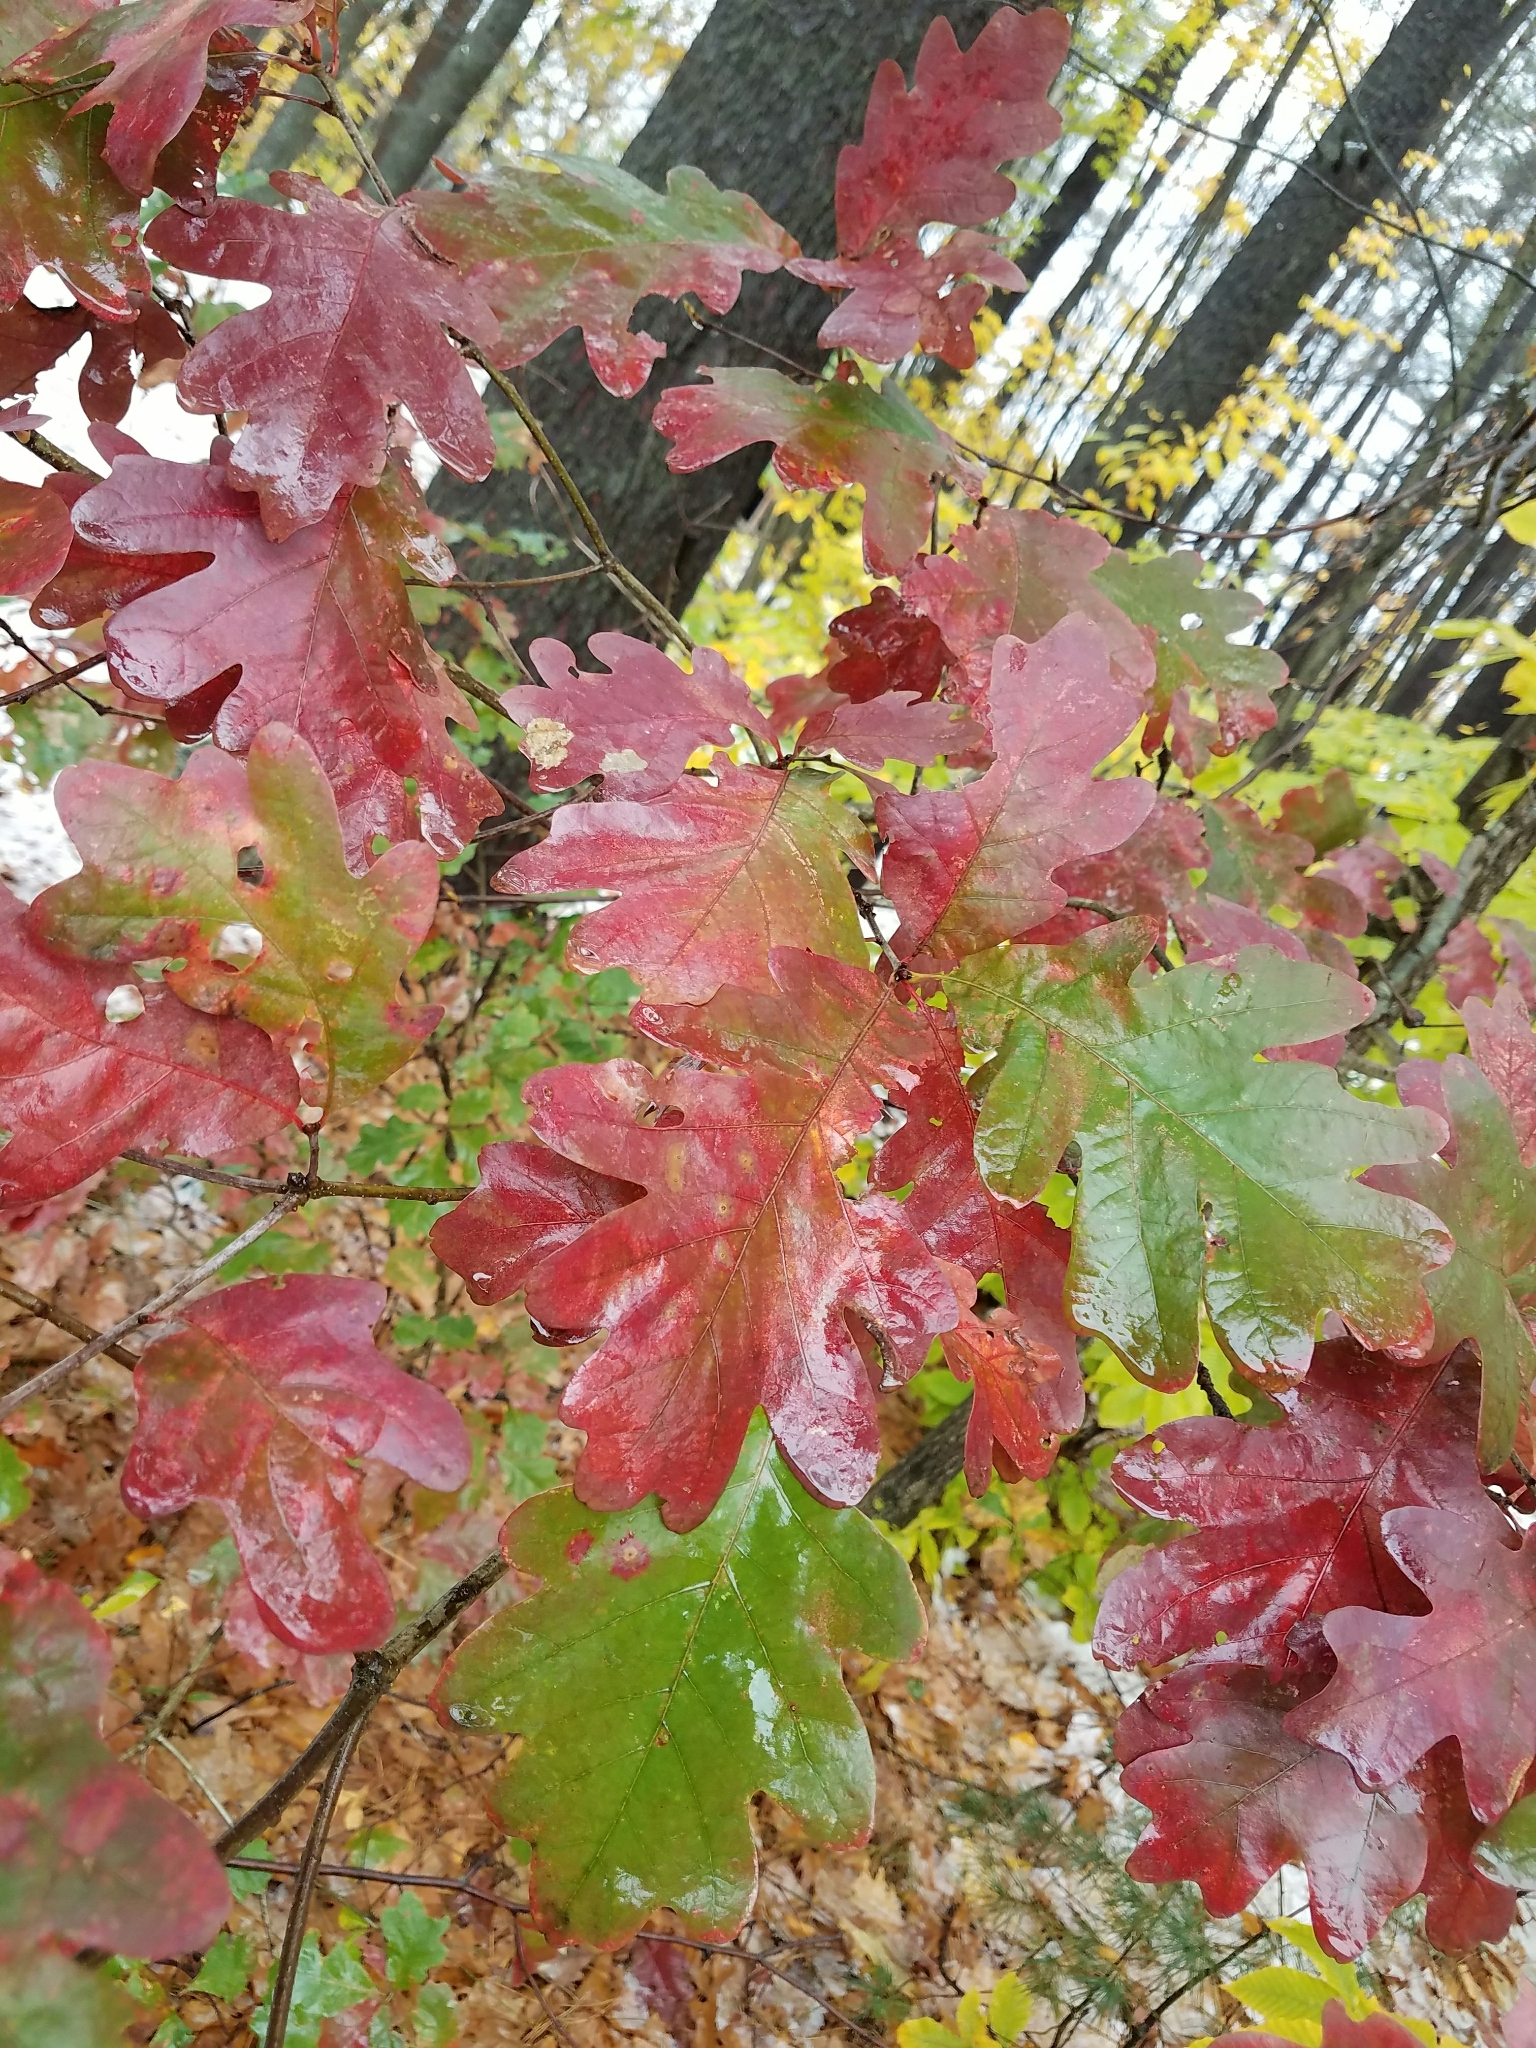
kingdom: Plantae
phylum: Tracheophyta
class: Magnoliopsida
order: Fagales
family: Fagaceae
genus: Quercus
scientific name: Quercus alba
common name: White oak
